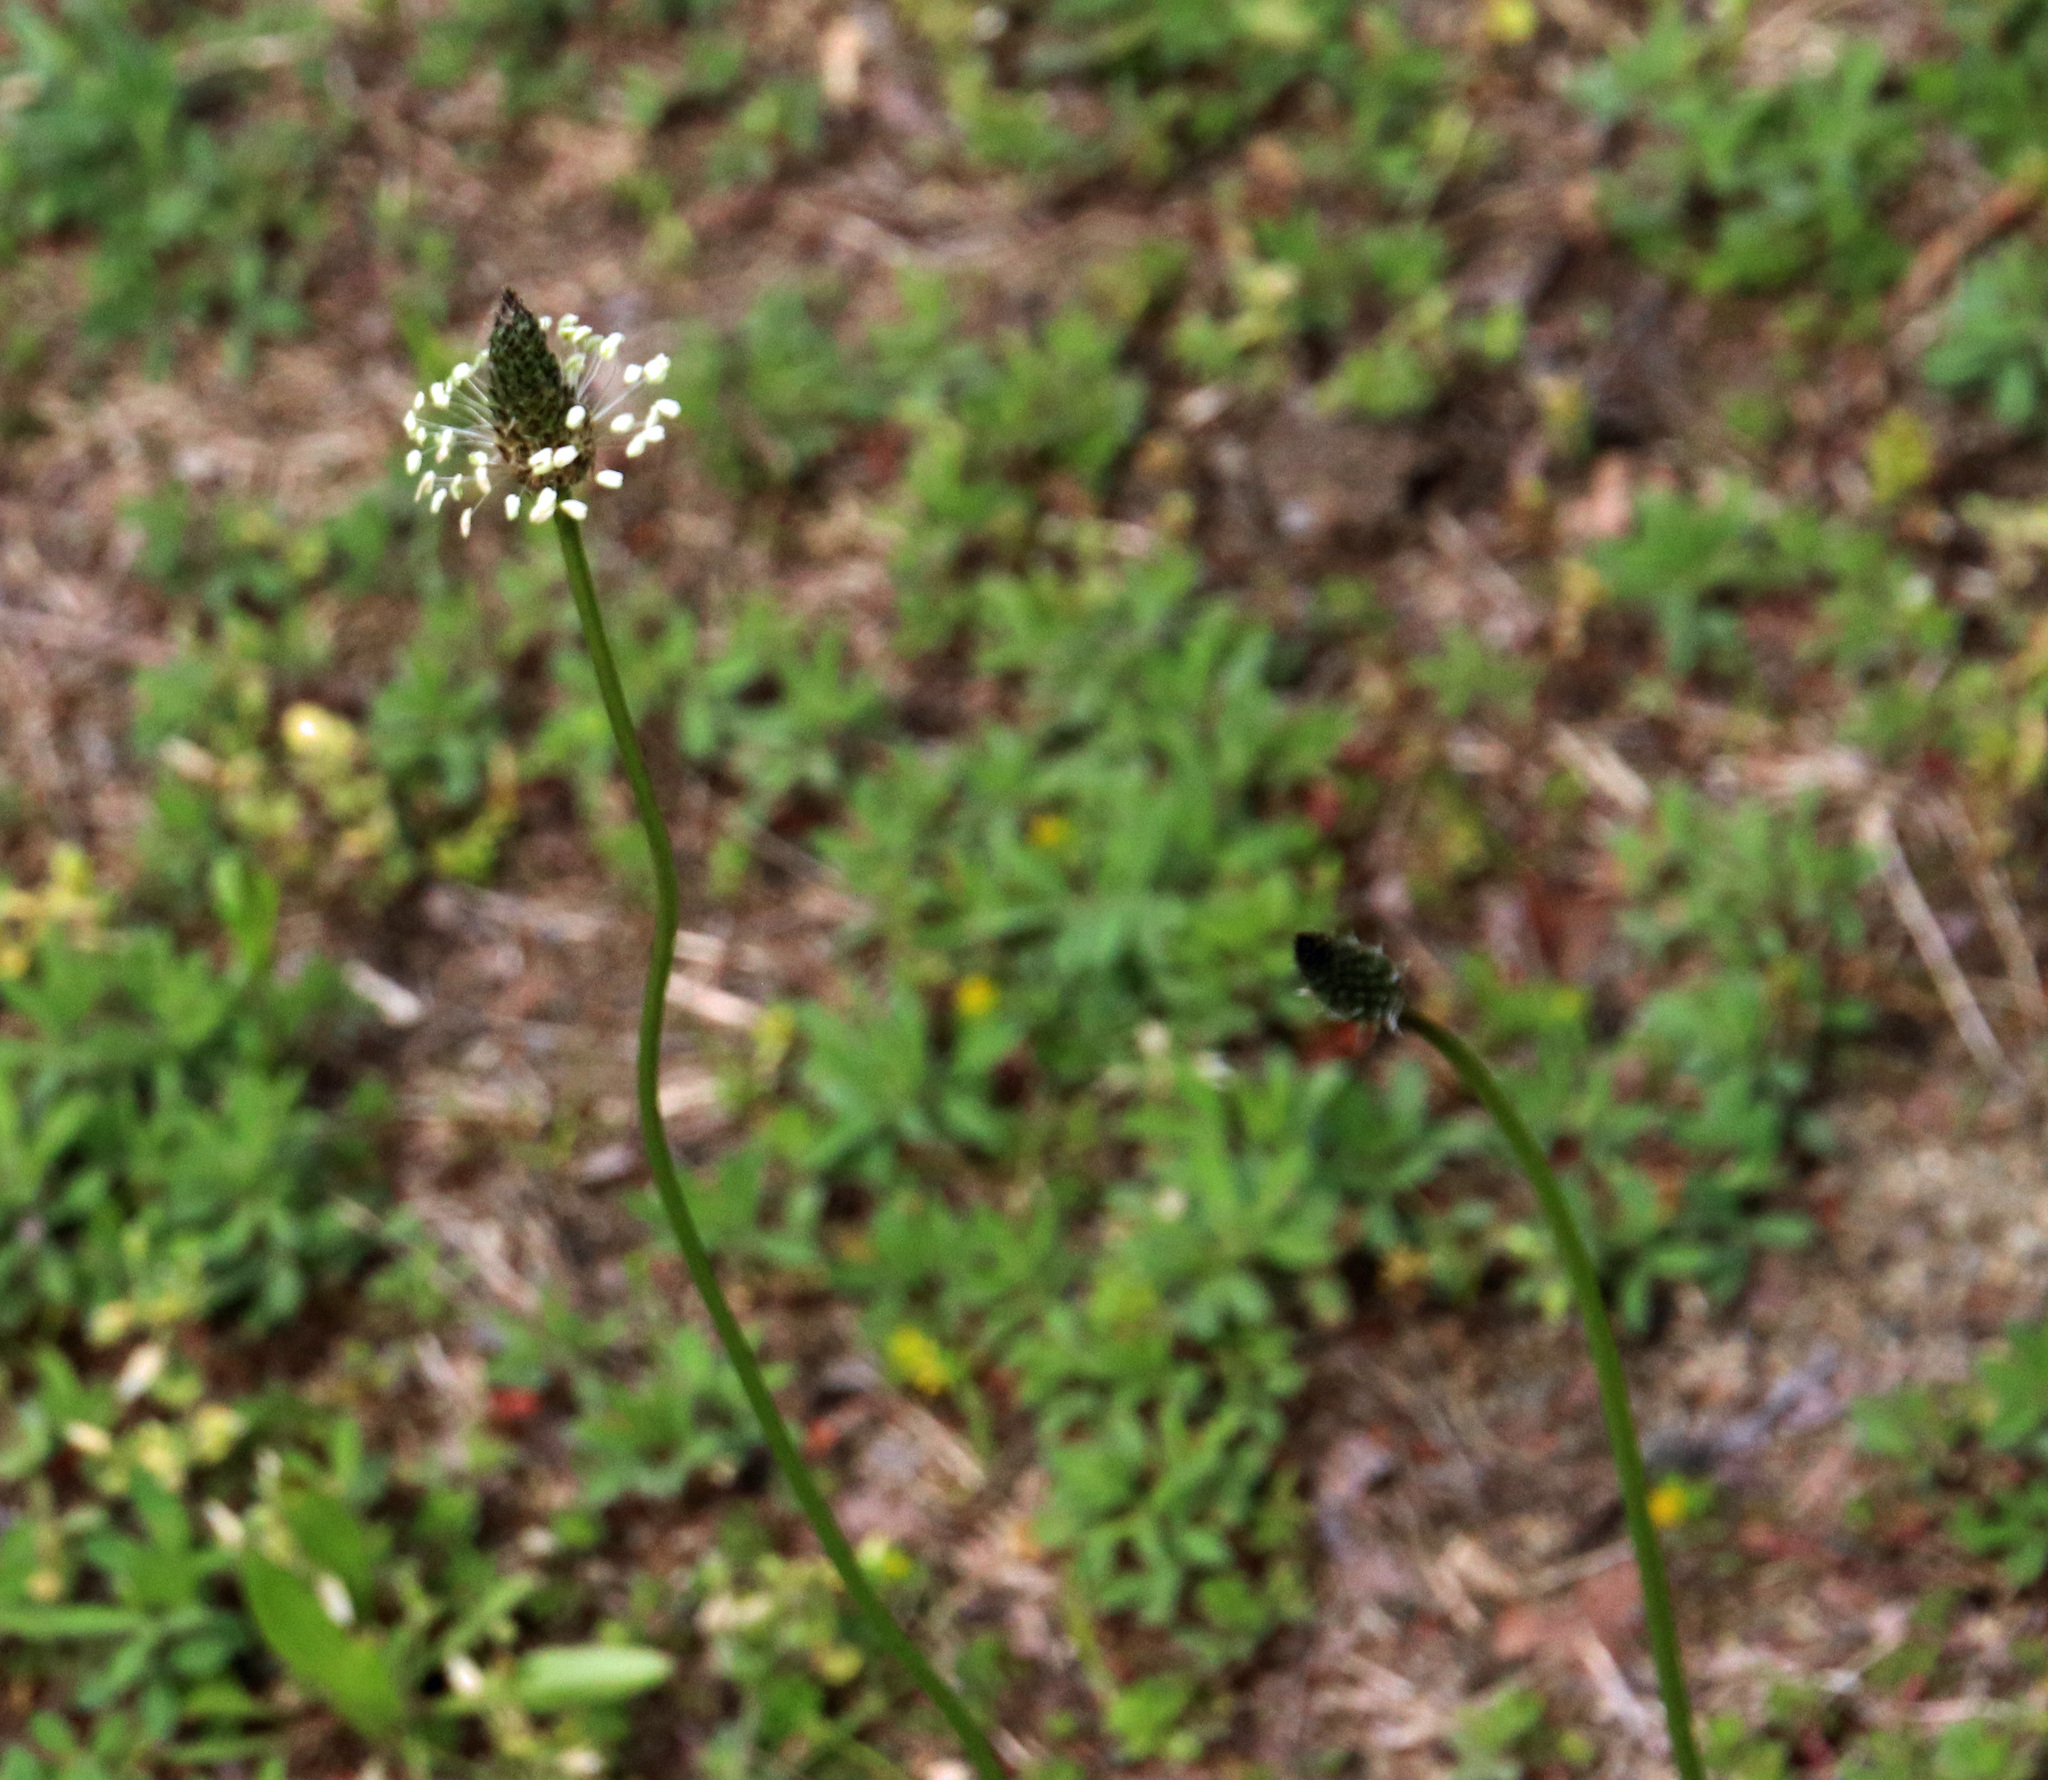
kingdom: Plantae
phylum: Tracheophyta
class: Magnoliopsida
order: Lamiales
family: Plantaginaceae
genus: Plantago
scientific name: Plantago lanceolata
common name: Ribwort plantain
